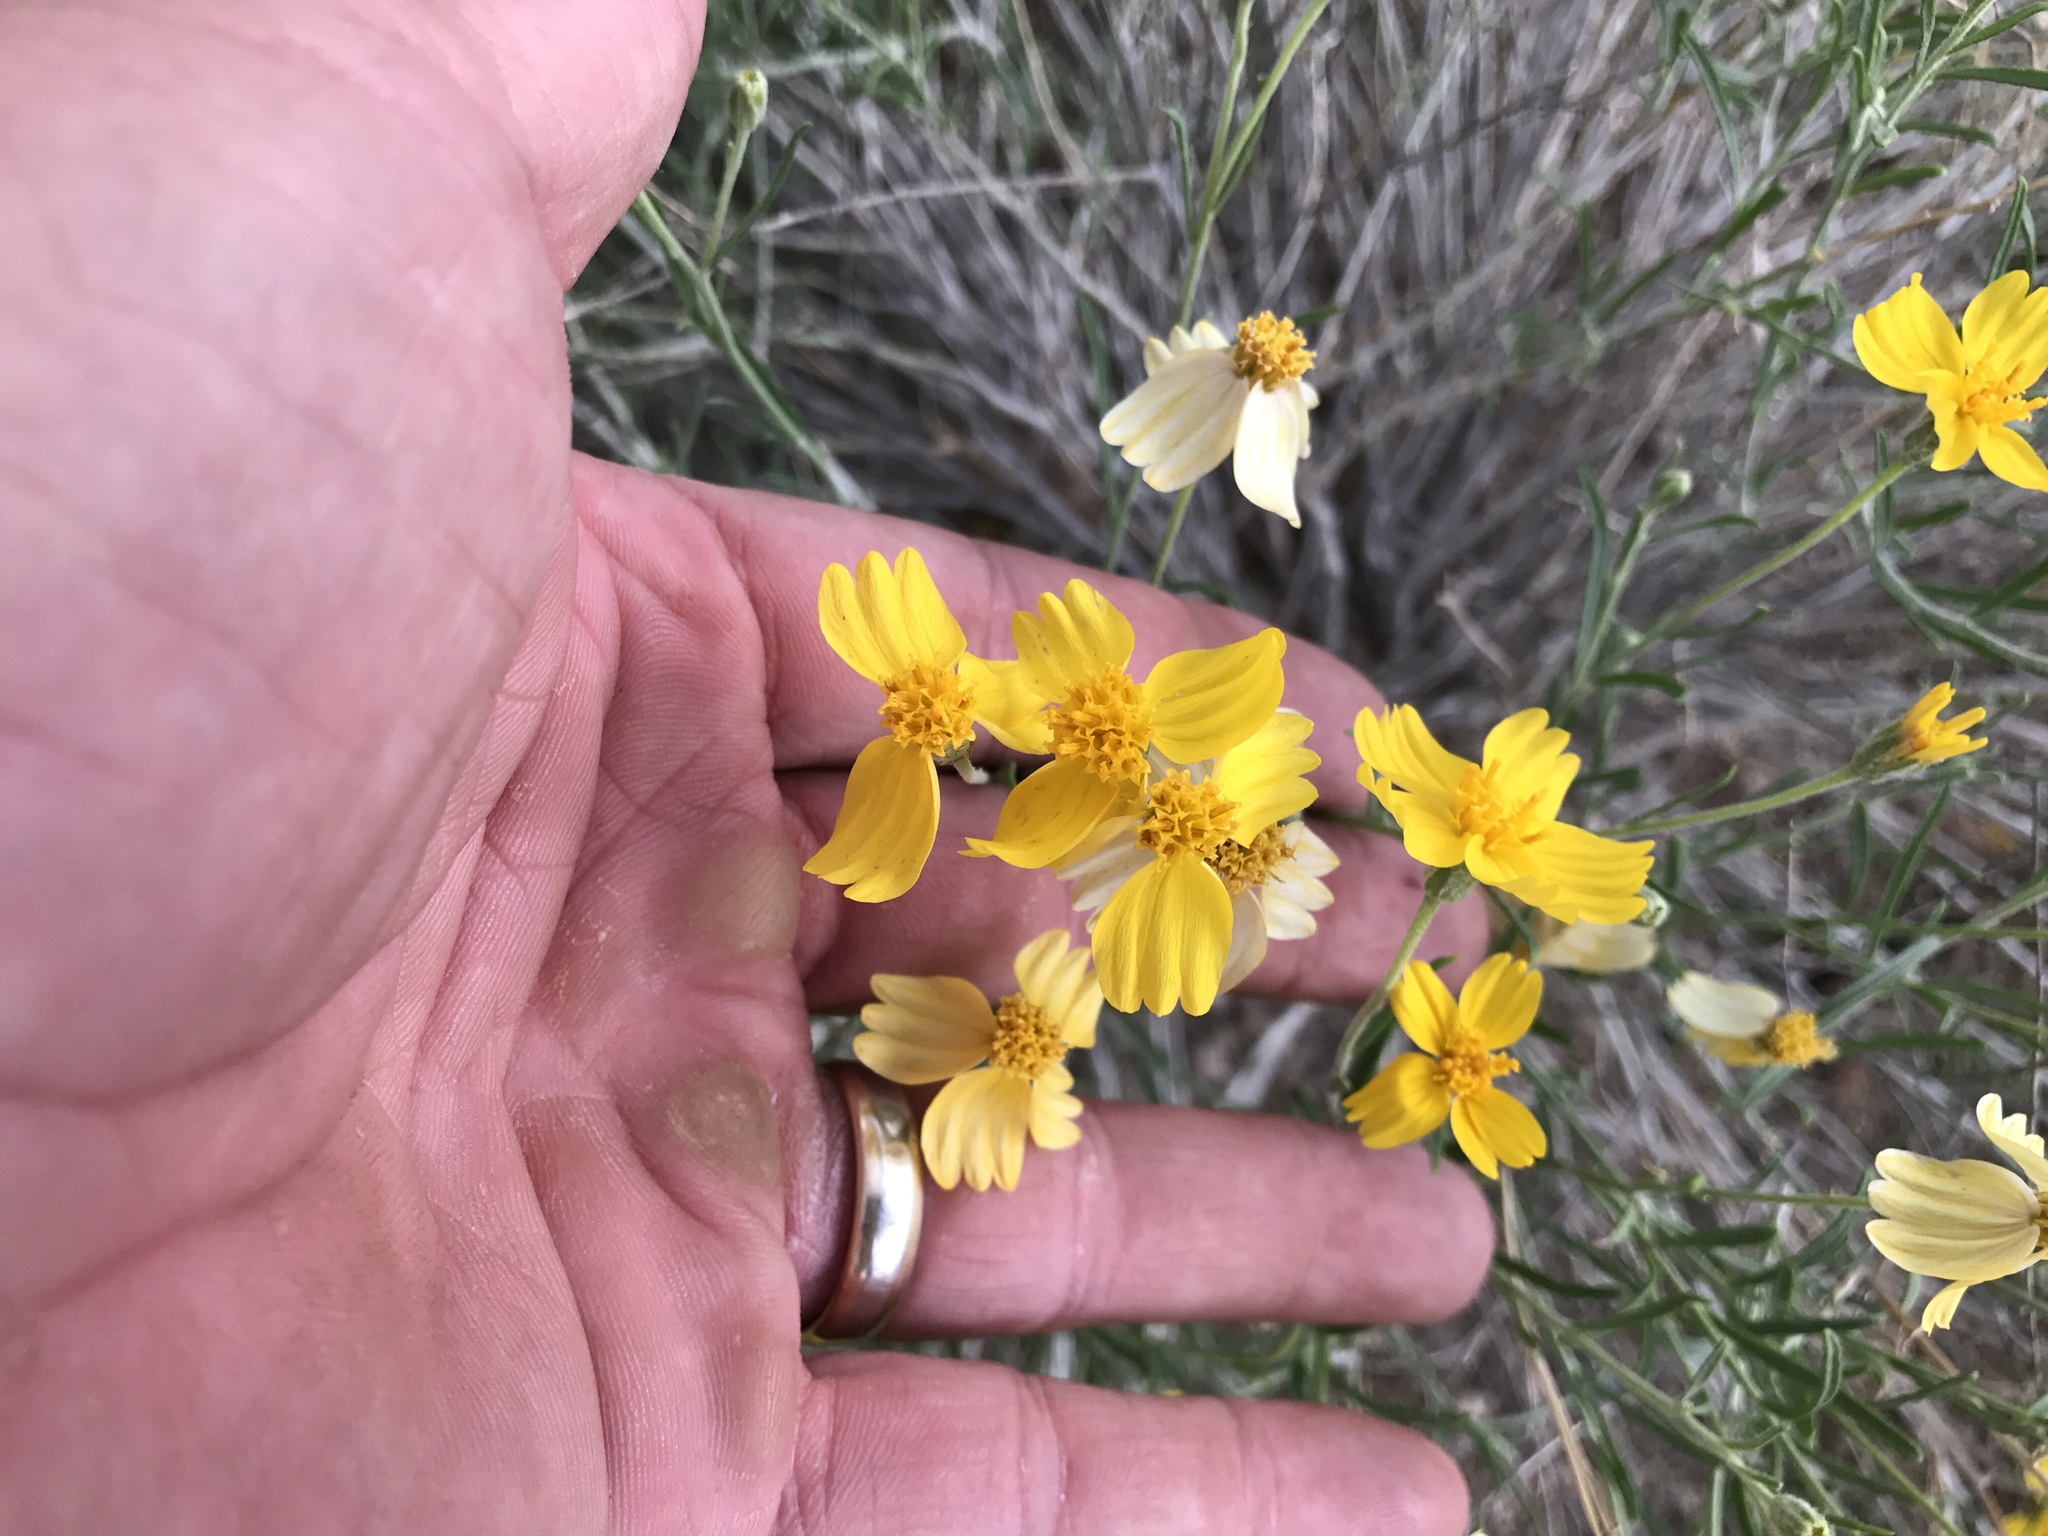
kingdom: Plantae
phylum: Tracheophyta
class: Magnoliopsida
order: Asterales
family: Asteraceae
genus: Psilostrophe
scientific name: Psilostrophe cooperi
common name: White-stem paper-flower
